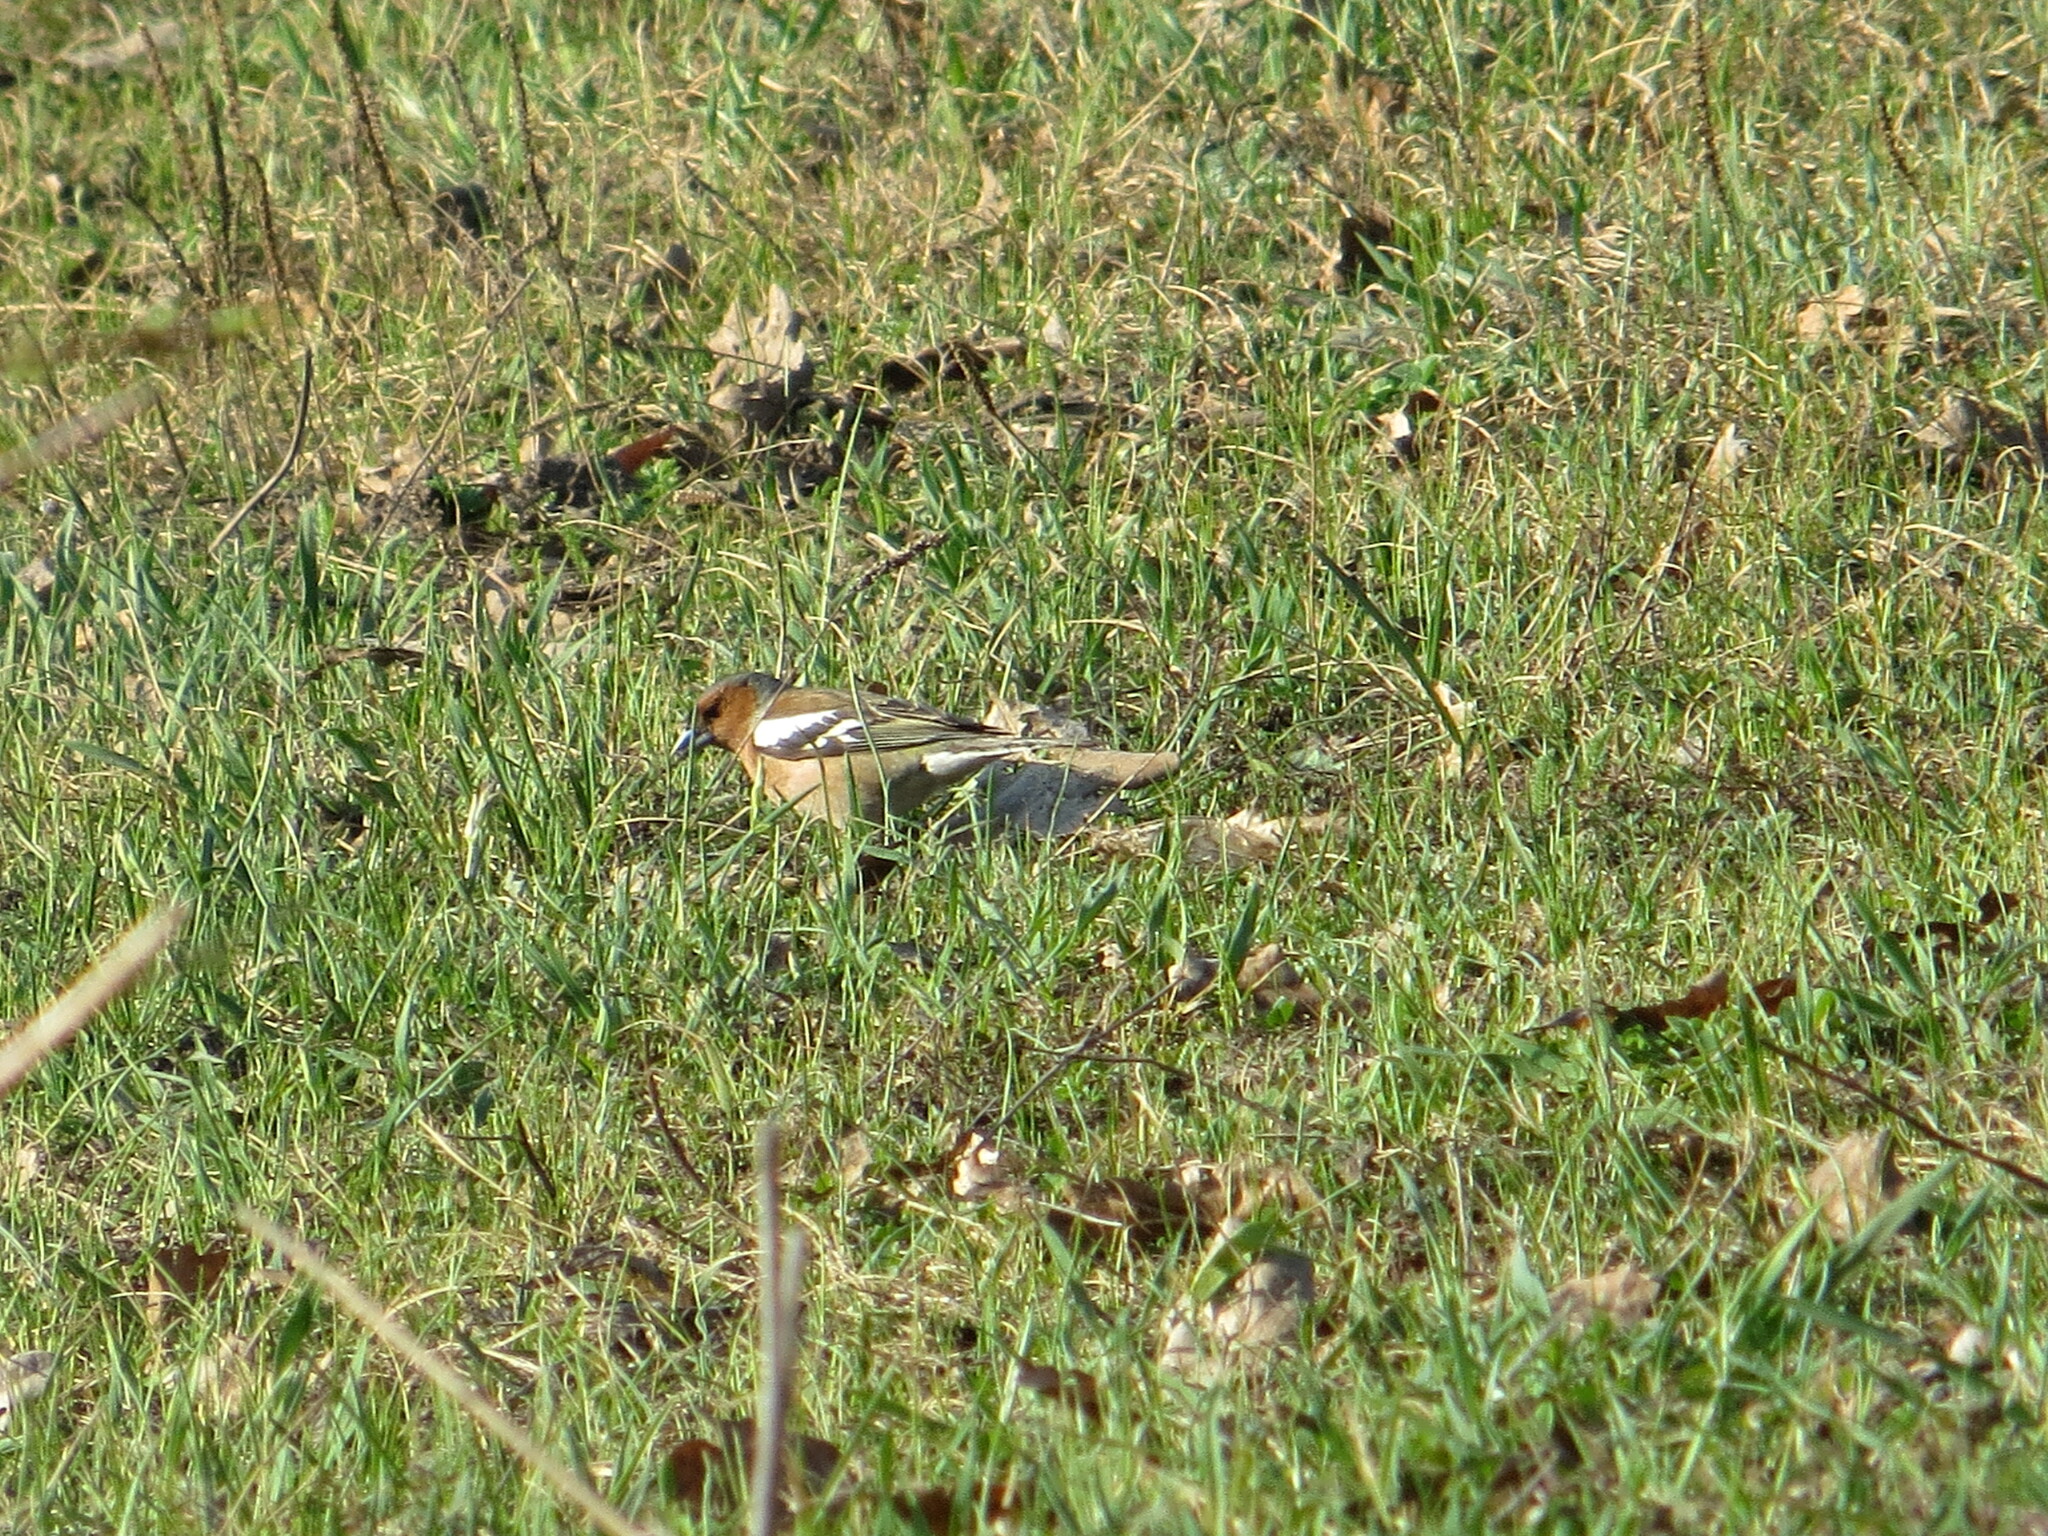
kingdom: Animalia
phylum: Chordata
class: Aves
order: Passeriformes
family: Fringillidae
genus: Fringilla
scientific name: Fringilla coelebs
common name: Common chaffinch
